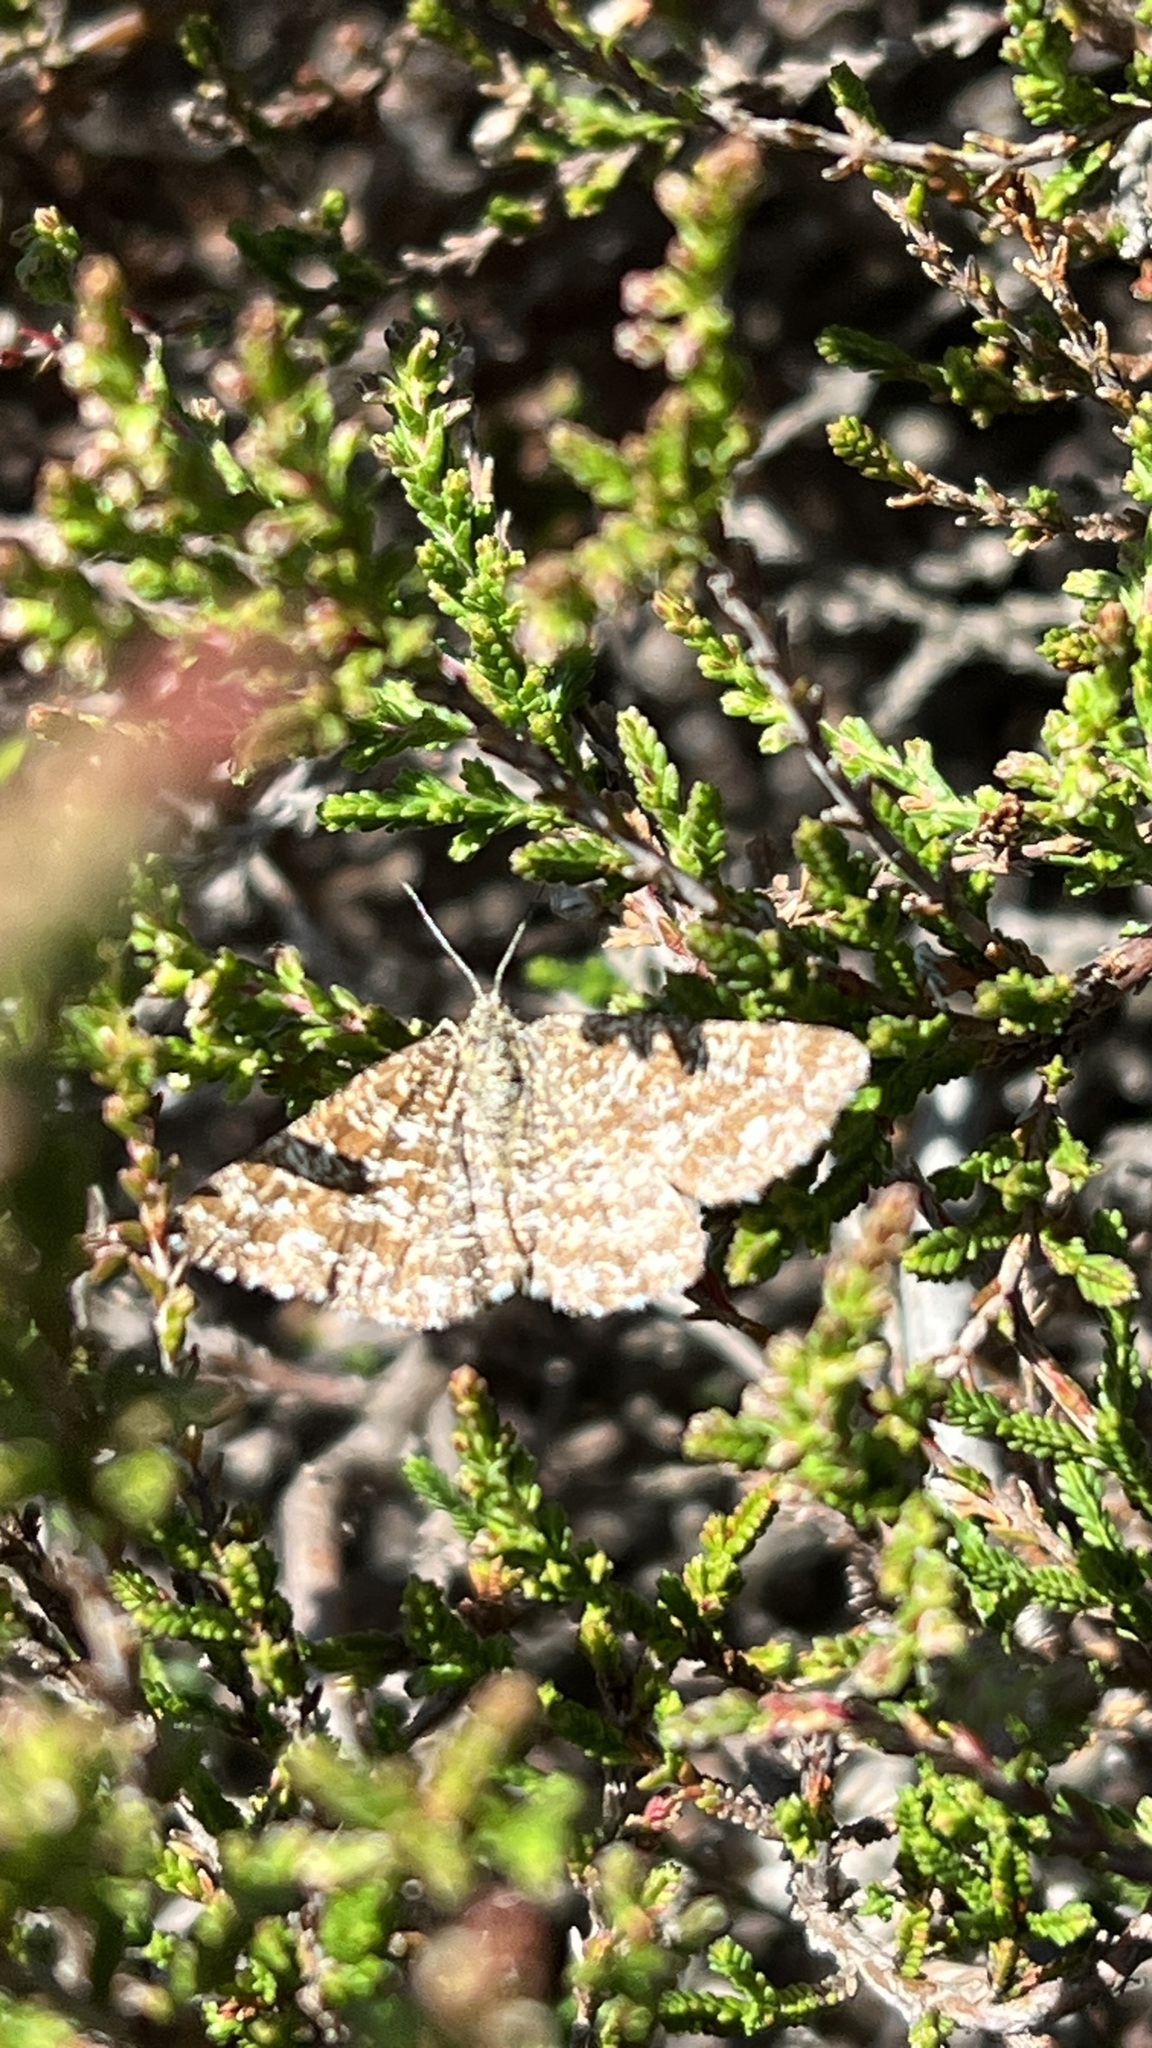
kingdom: Animalia
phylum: Arthropoda
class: Insecta
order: Lepidoptera
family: Geometridae
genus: Ematurga
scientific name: Ematurga atomaria
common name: Common heath
